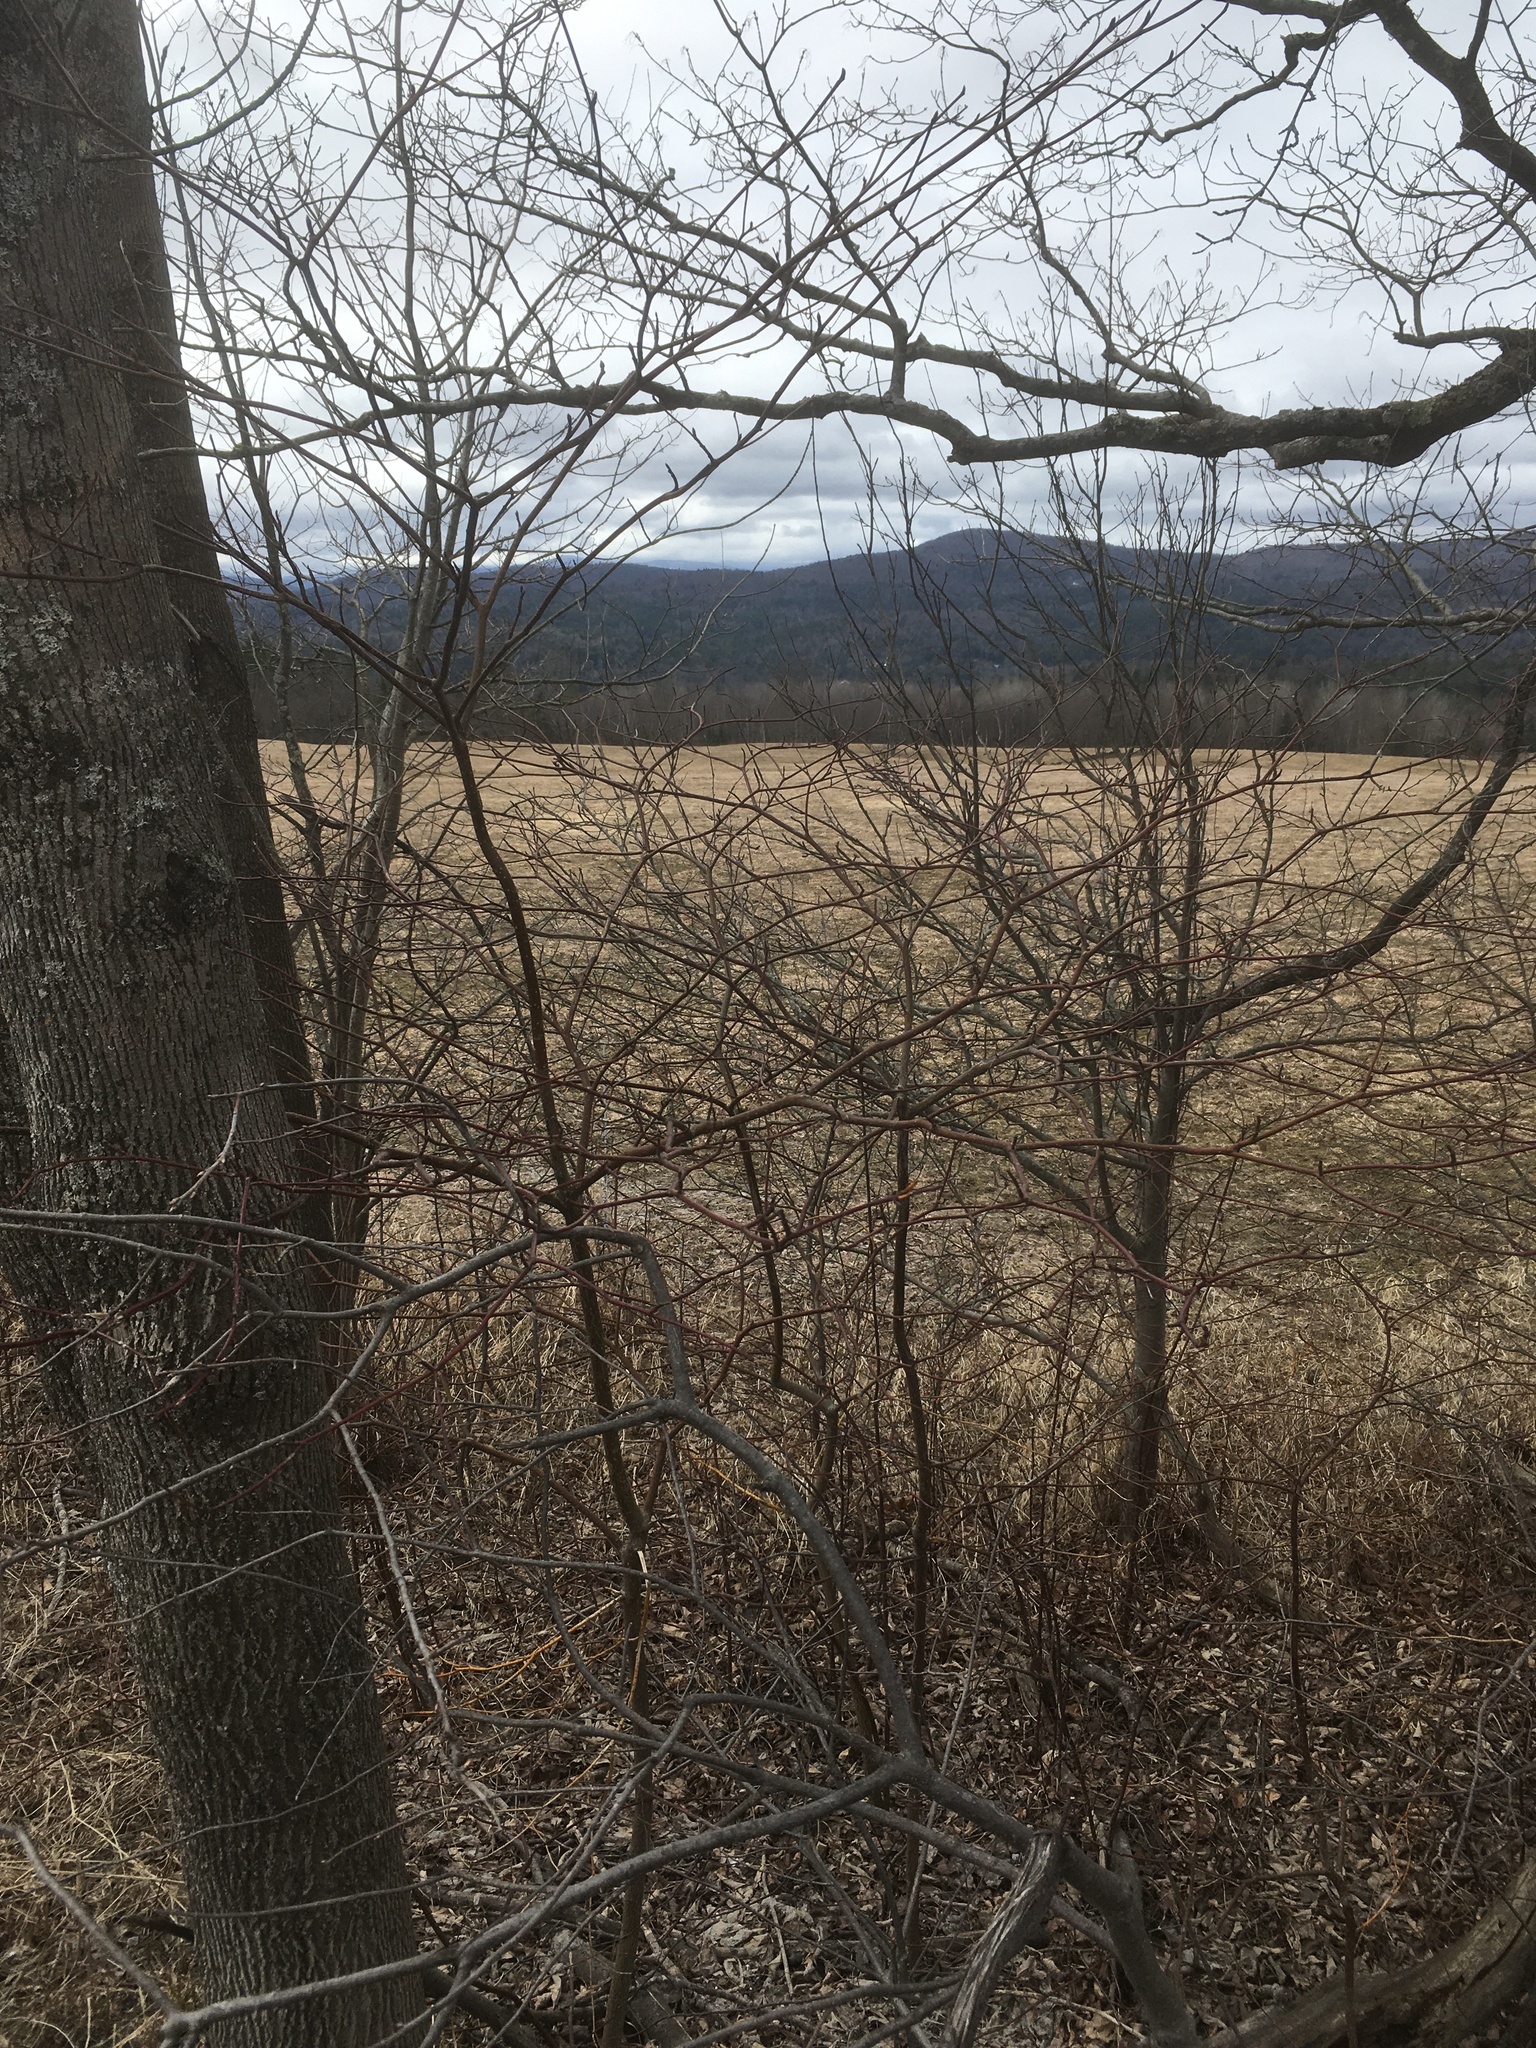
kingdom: Plantae
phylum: Tracheophyta
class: Magnoliopsida
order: Cornales
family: Cornaceae
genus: Cornus
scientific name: Cornus alternifolia
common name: Pagoda dogwood
